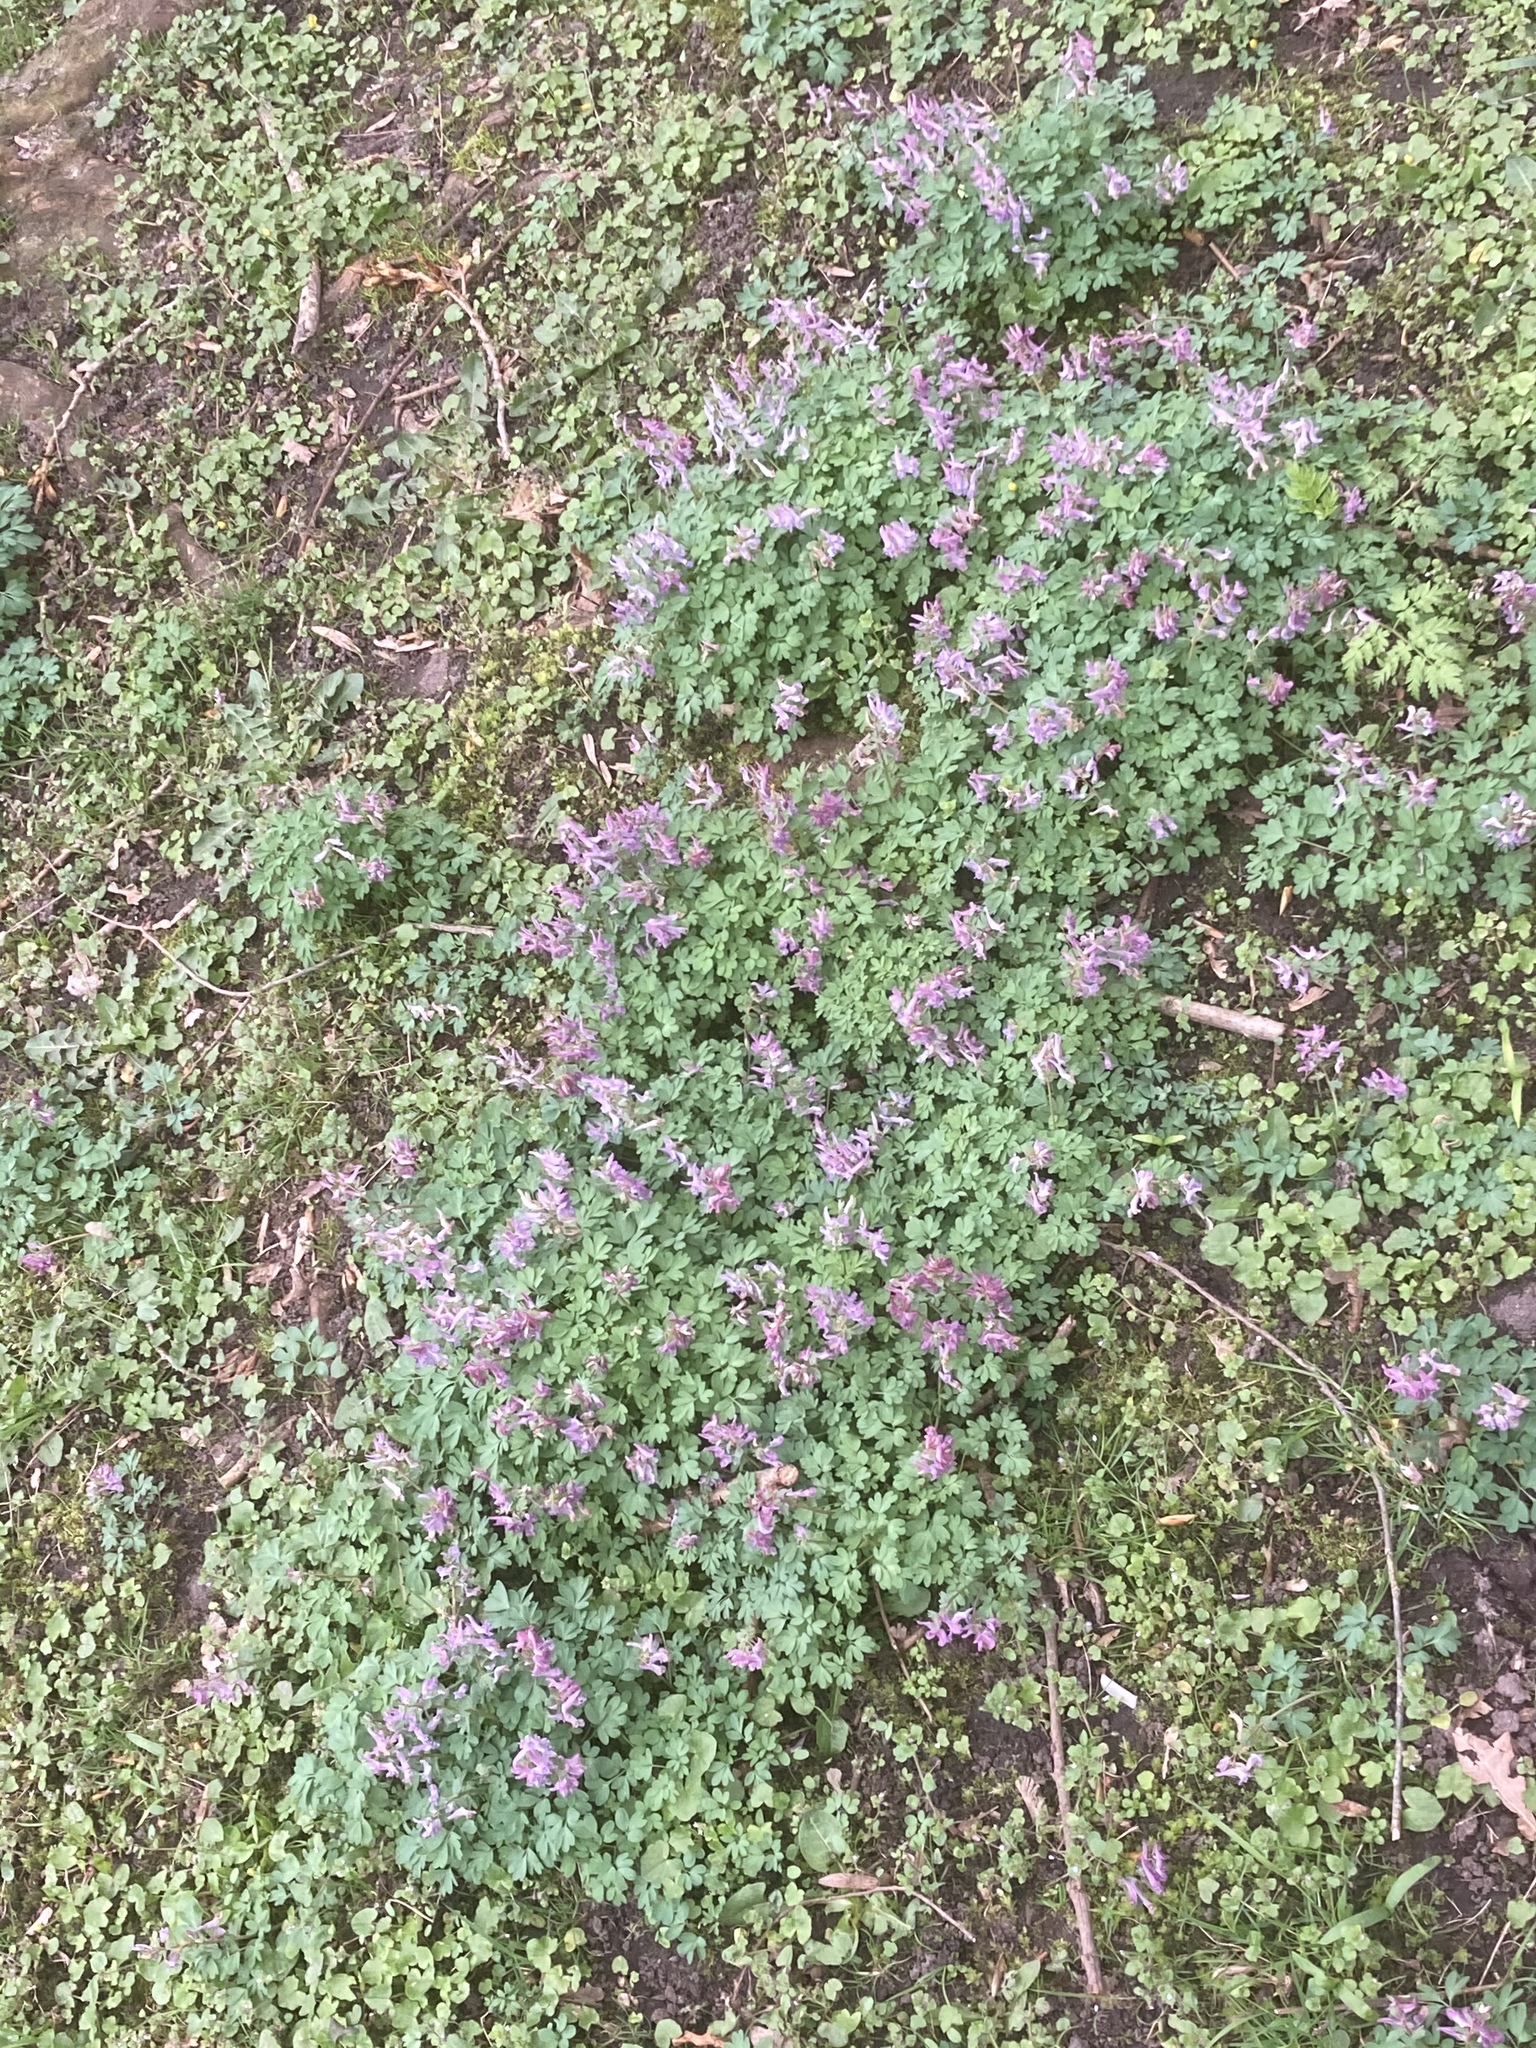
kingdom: Plantae
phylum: Tracheophyta
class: Magnoliopsida
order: Ranunculales
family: Papaveraceae
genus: Corydalis
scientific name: Corydalis solida
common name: Bird-in-a-bush
